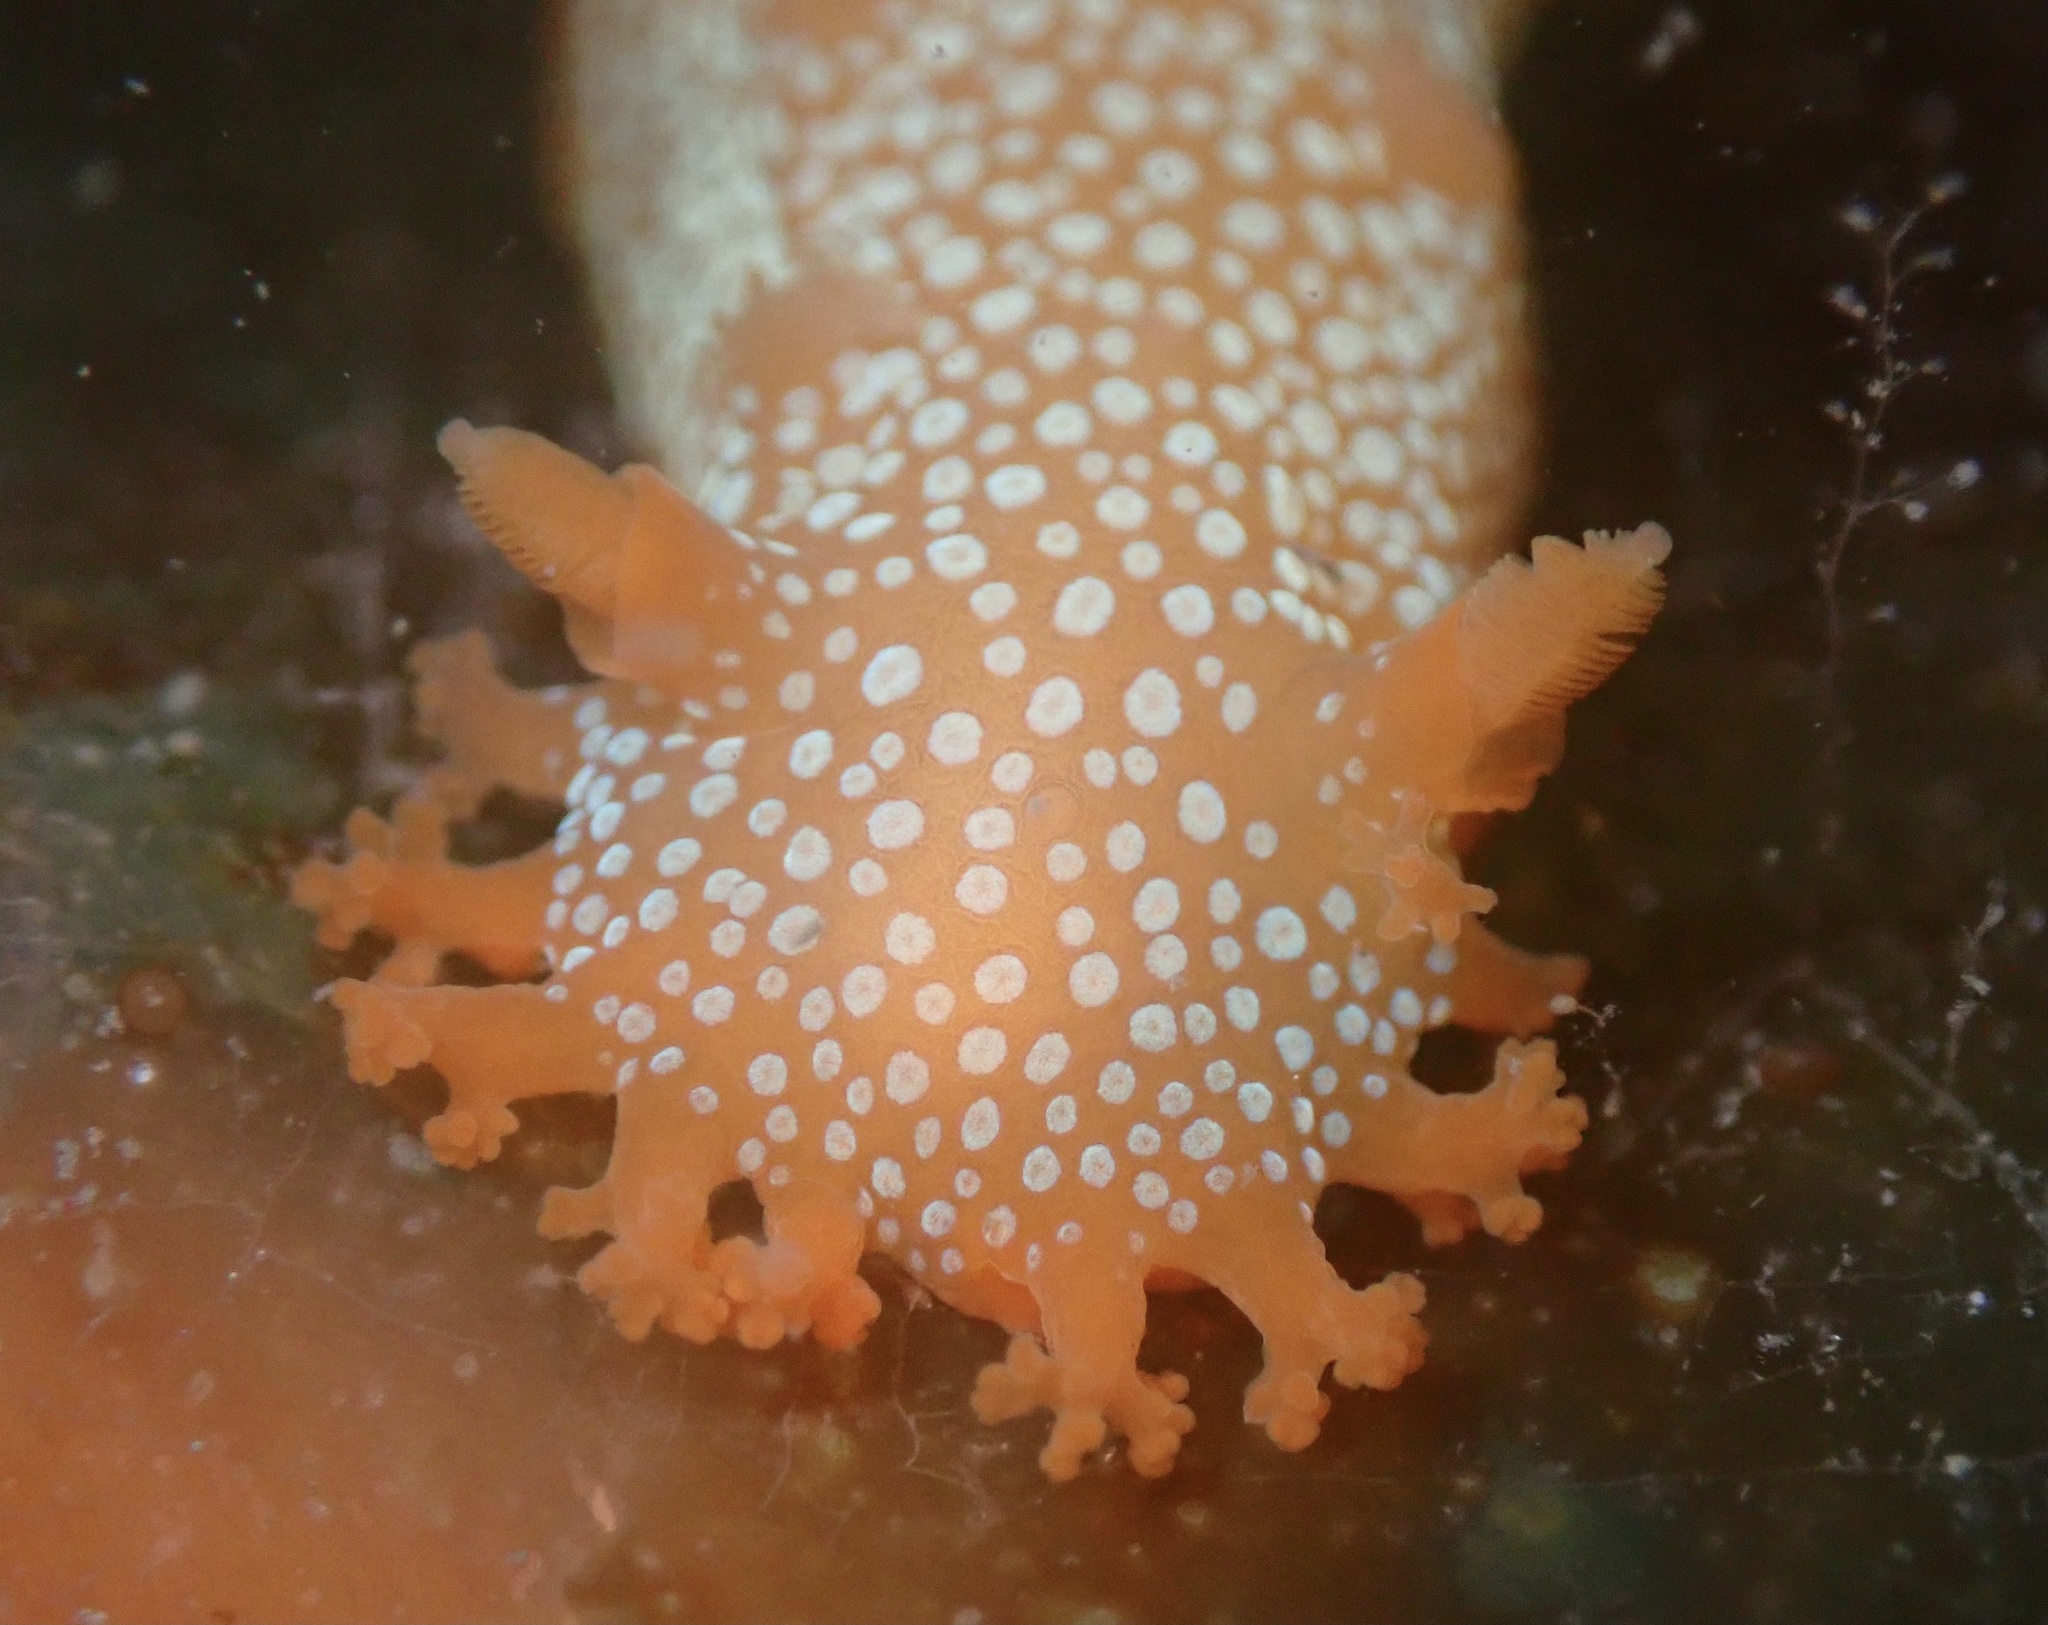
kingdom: Animalia
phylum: Mollusca
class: Gastropoda
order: Nudibranchia
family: Polyceridae
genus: Triopha
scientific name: Triopha maculata
